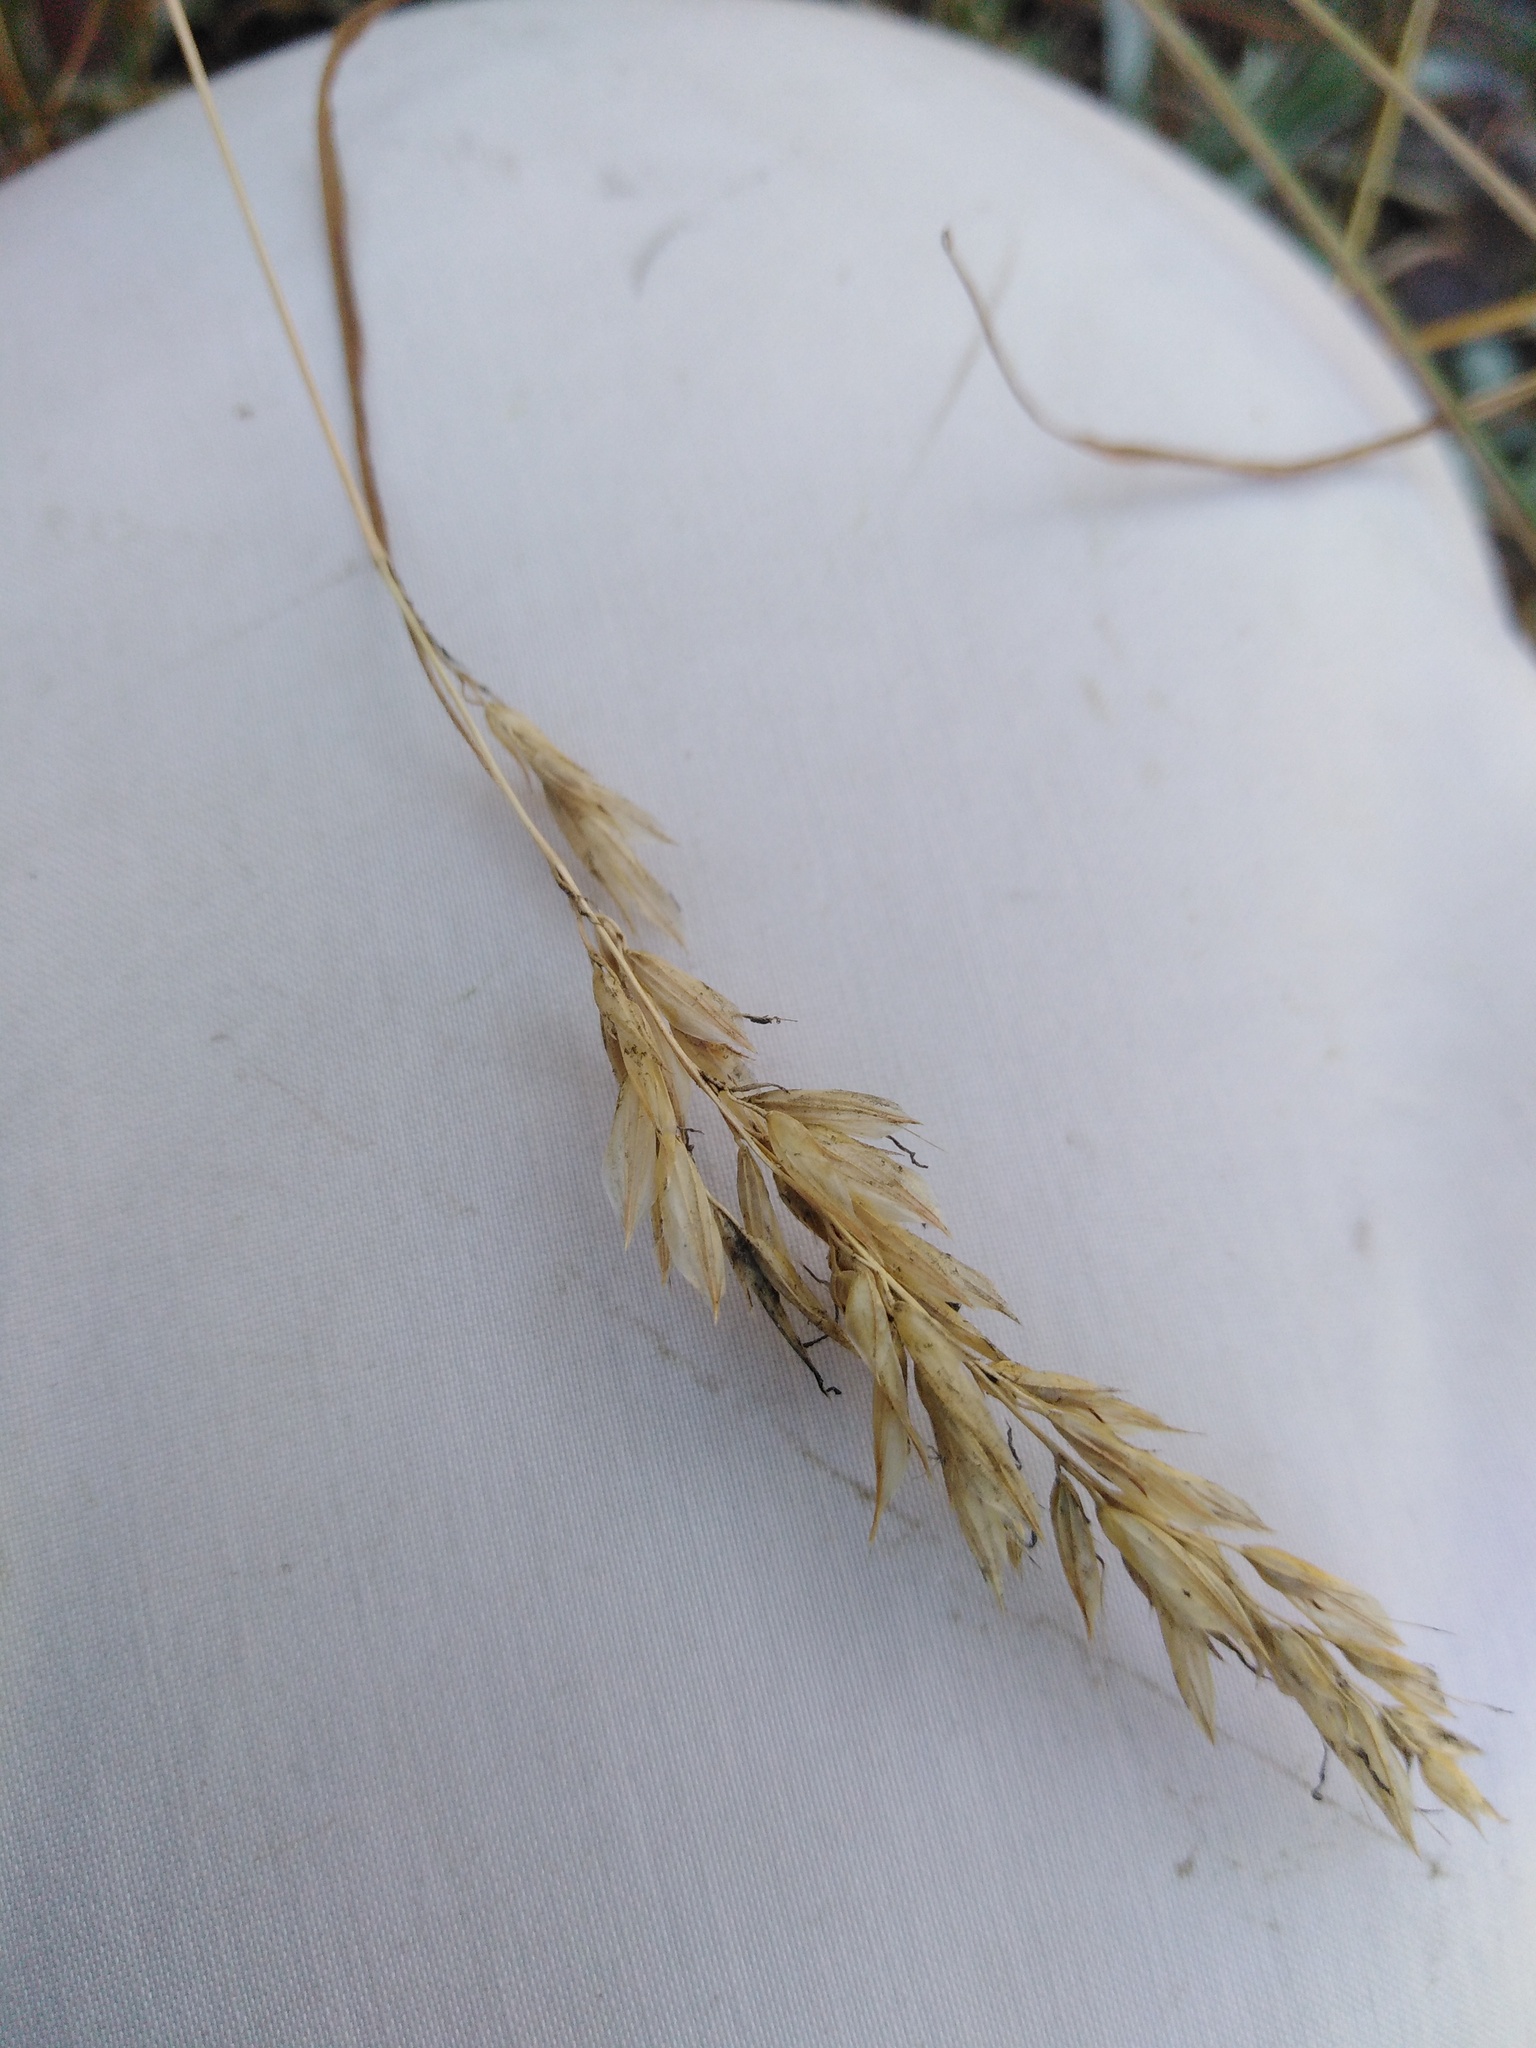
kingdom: Plantae
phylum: Tracheophyta
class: Liliopsida
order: Poales
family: Poaceae
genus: Anthoxanthum
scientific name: Anthoxanthum odoratum
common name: Sweet vernalgrass
